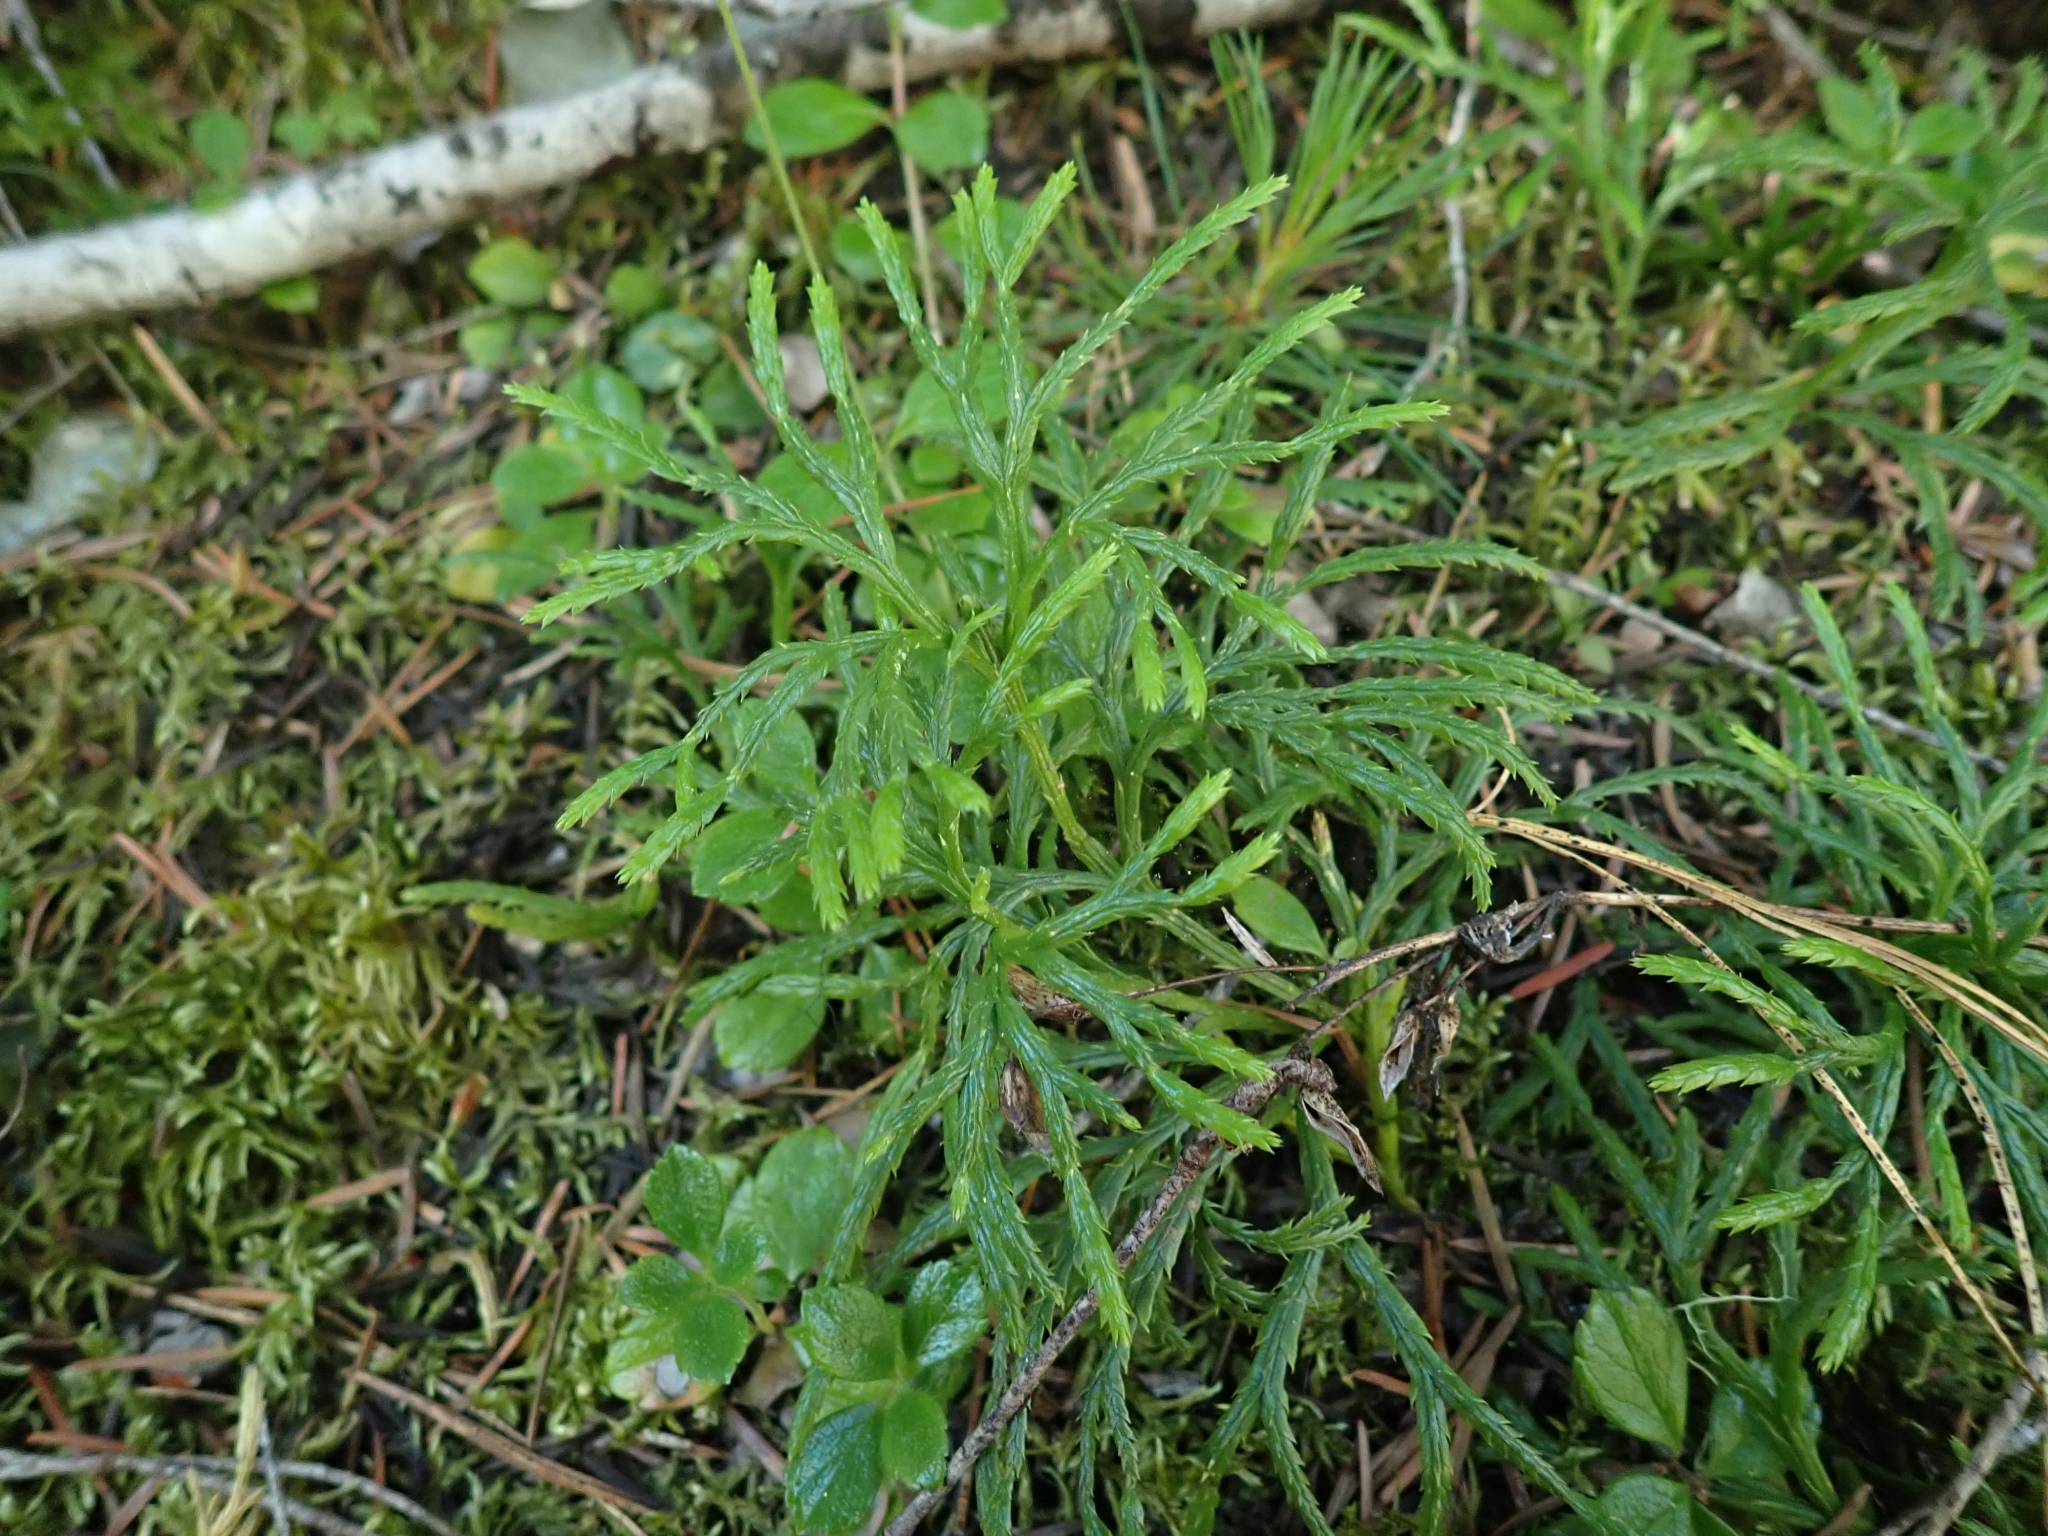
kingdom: Plantae
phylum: Tracheophyta
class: Lycopodiopsida
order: Lycopodiales
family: Lycopodiaceae
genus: Diphasiastrum
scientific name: Diphasiastrum complanatum
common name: Northern running-pine
